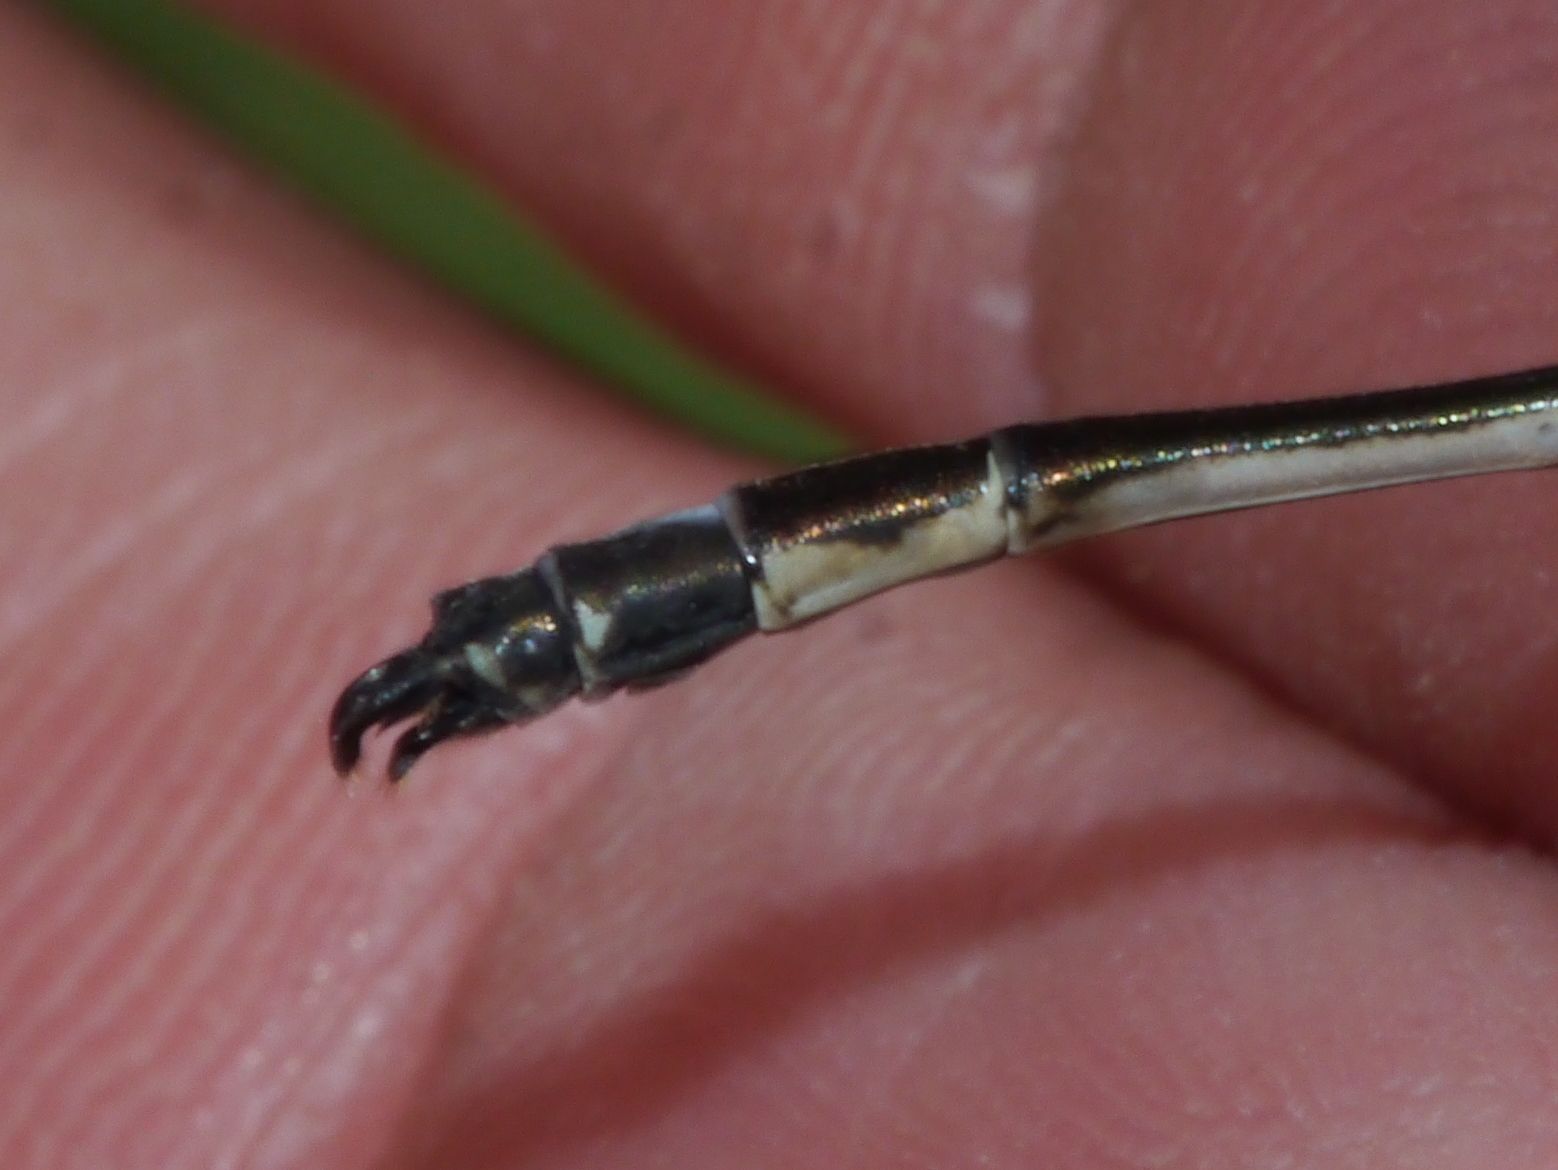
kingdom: Animalia
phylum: Arthropoda
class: Insecta
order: Odonata
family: Lestidae
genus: Lestes
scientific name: Lestes rectangularis
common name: Slender spreadwing
